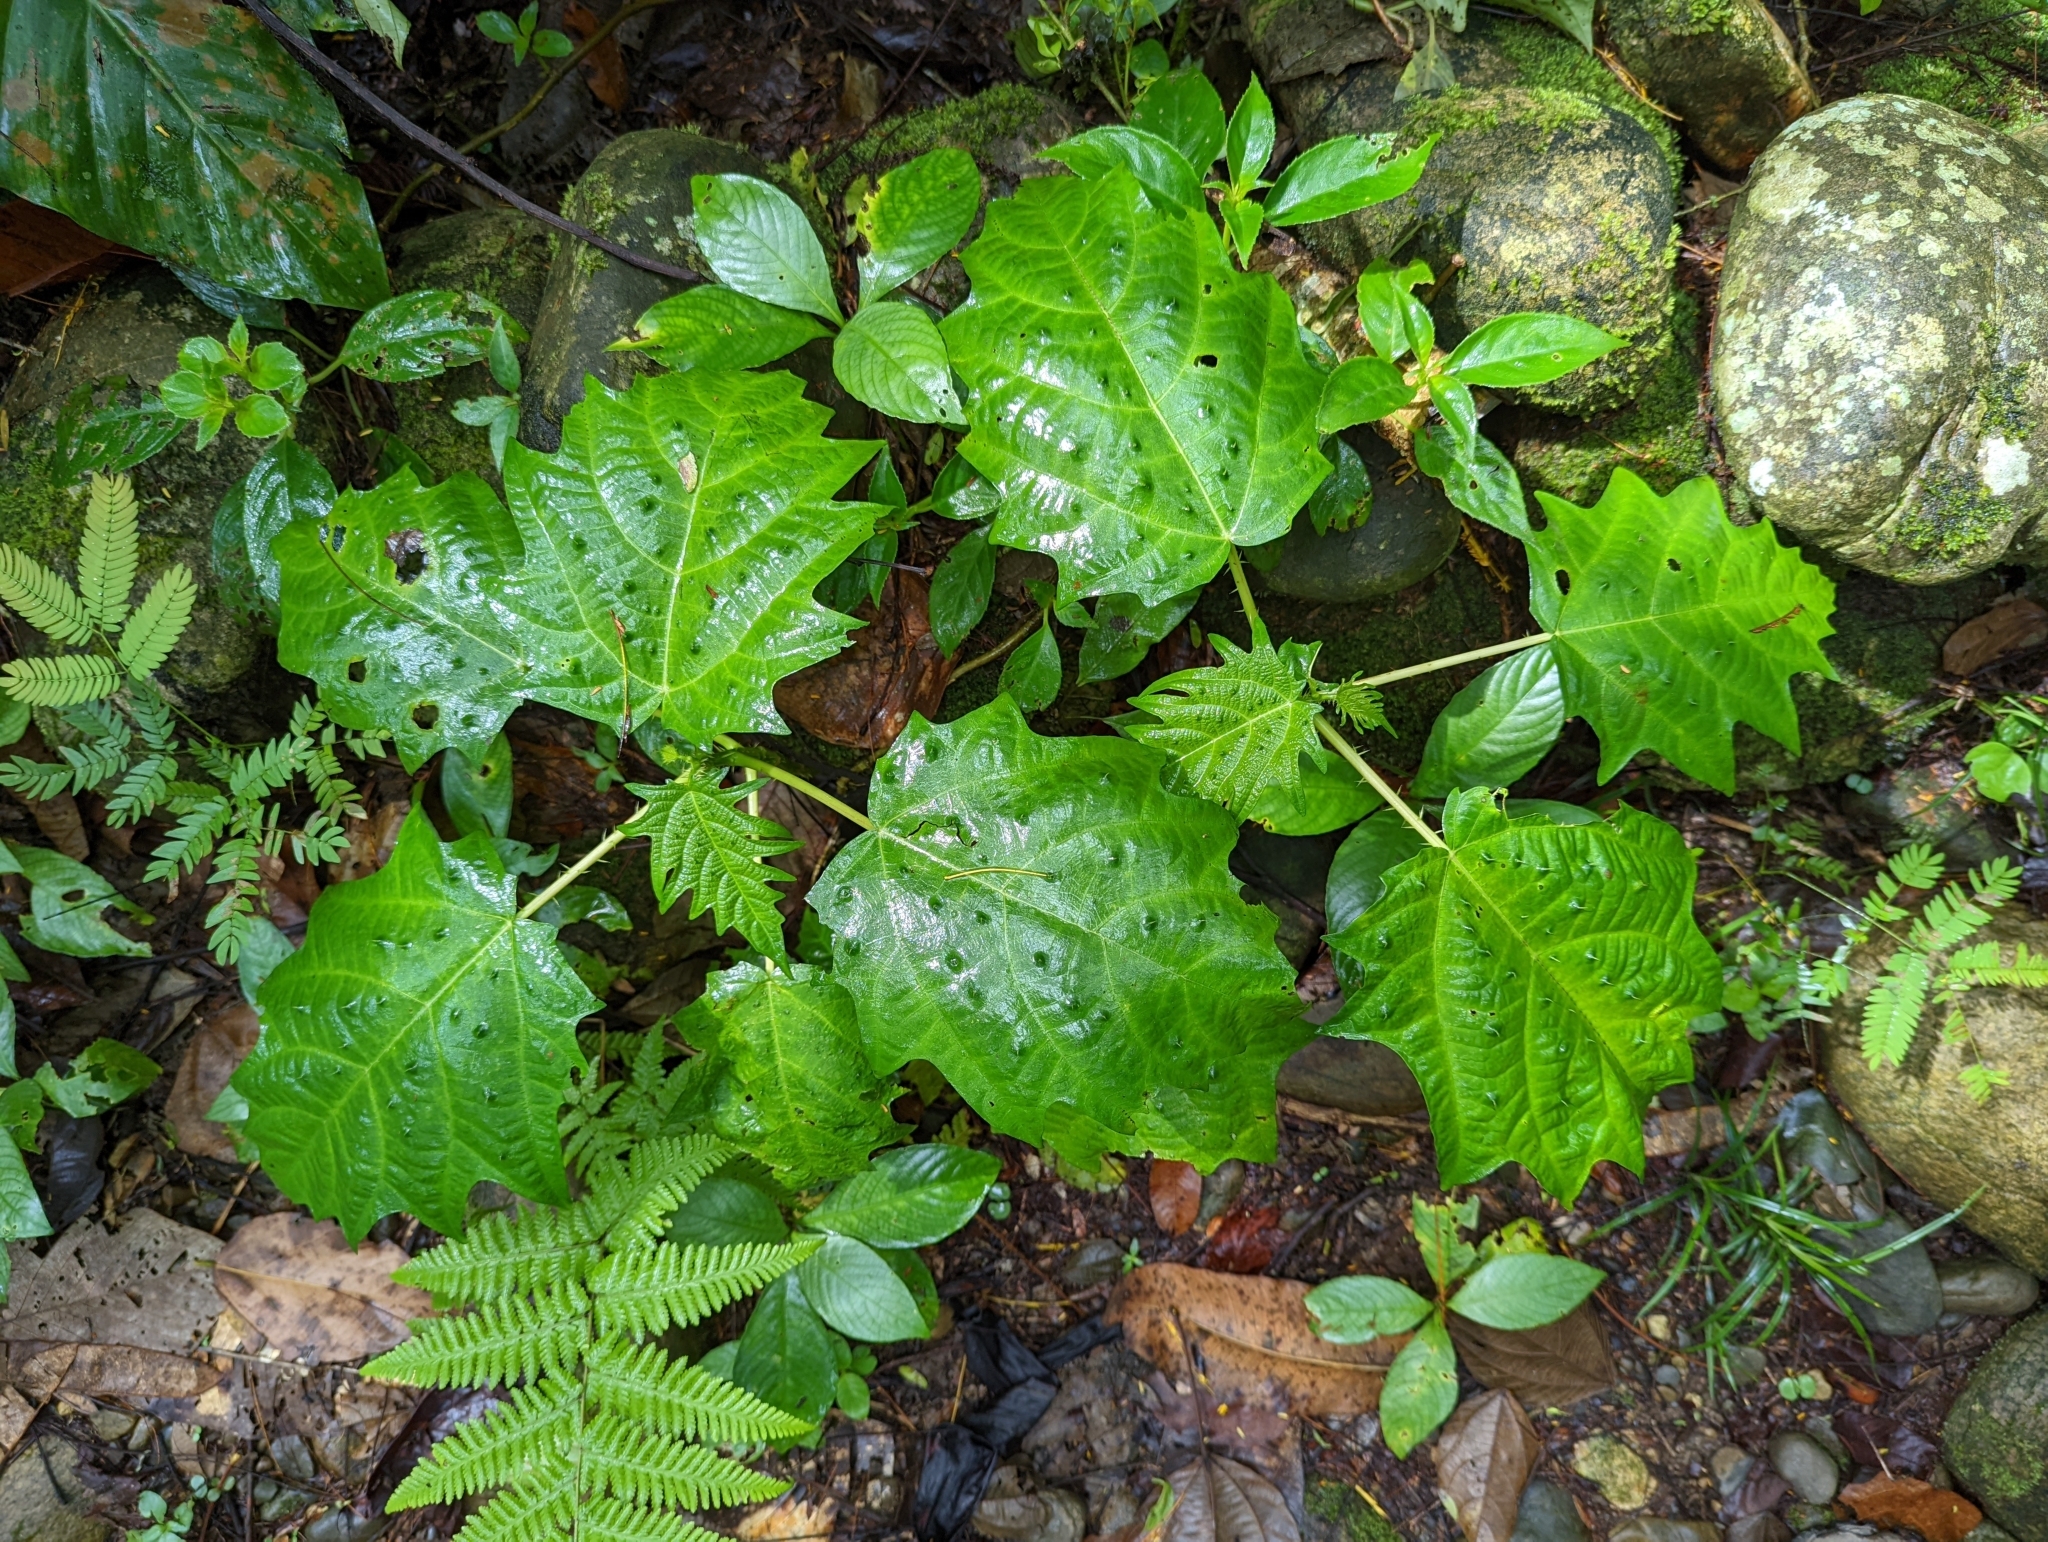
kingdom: Plantae
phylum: Tracheophyta
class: Magnoliopsida
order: Rosales
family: Urticaceae
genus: Urera
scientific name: Urera laciniata
